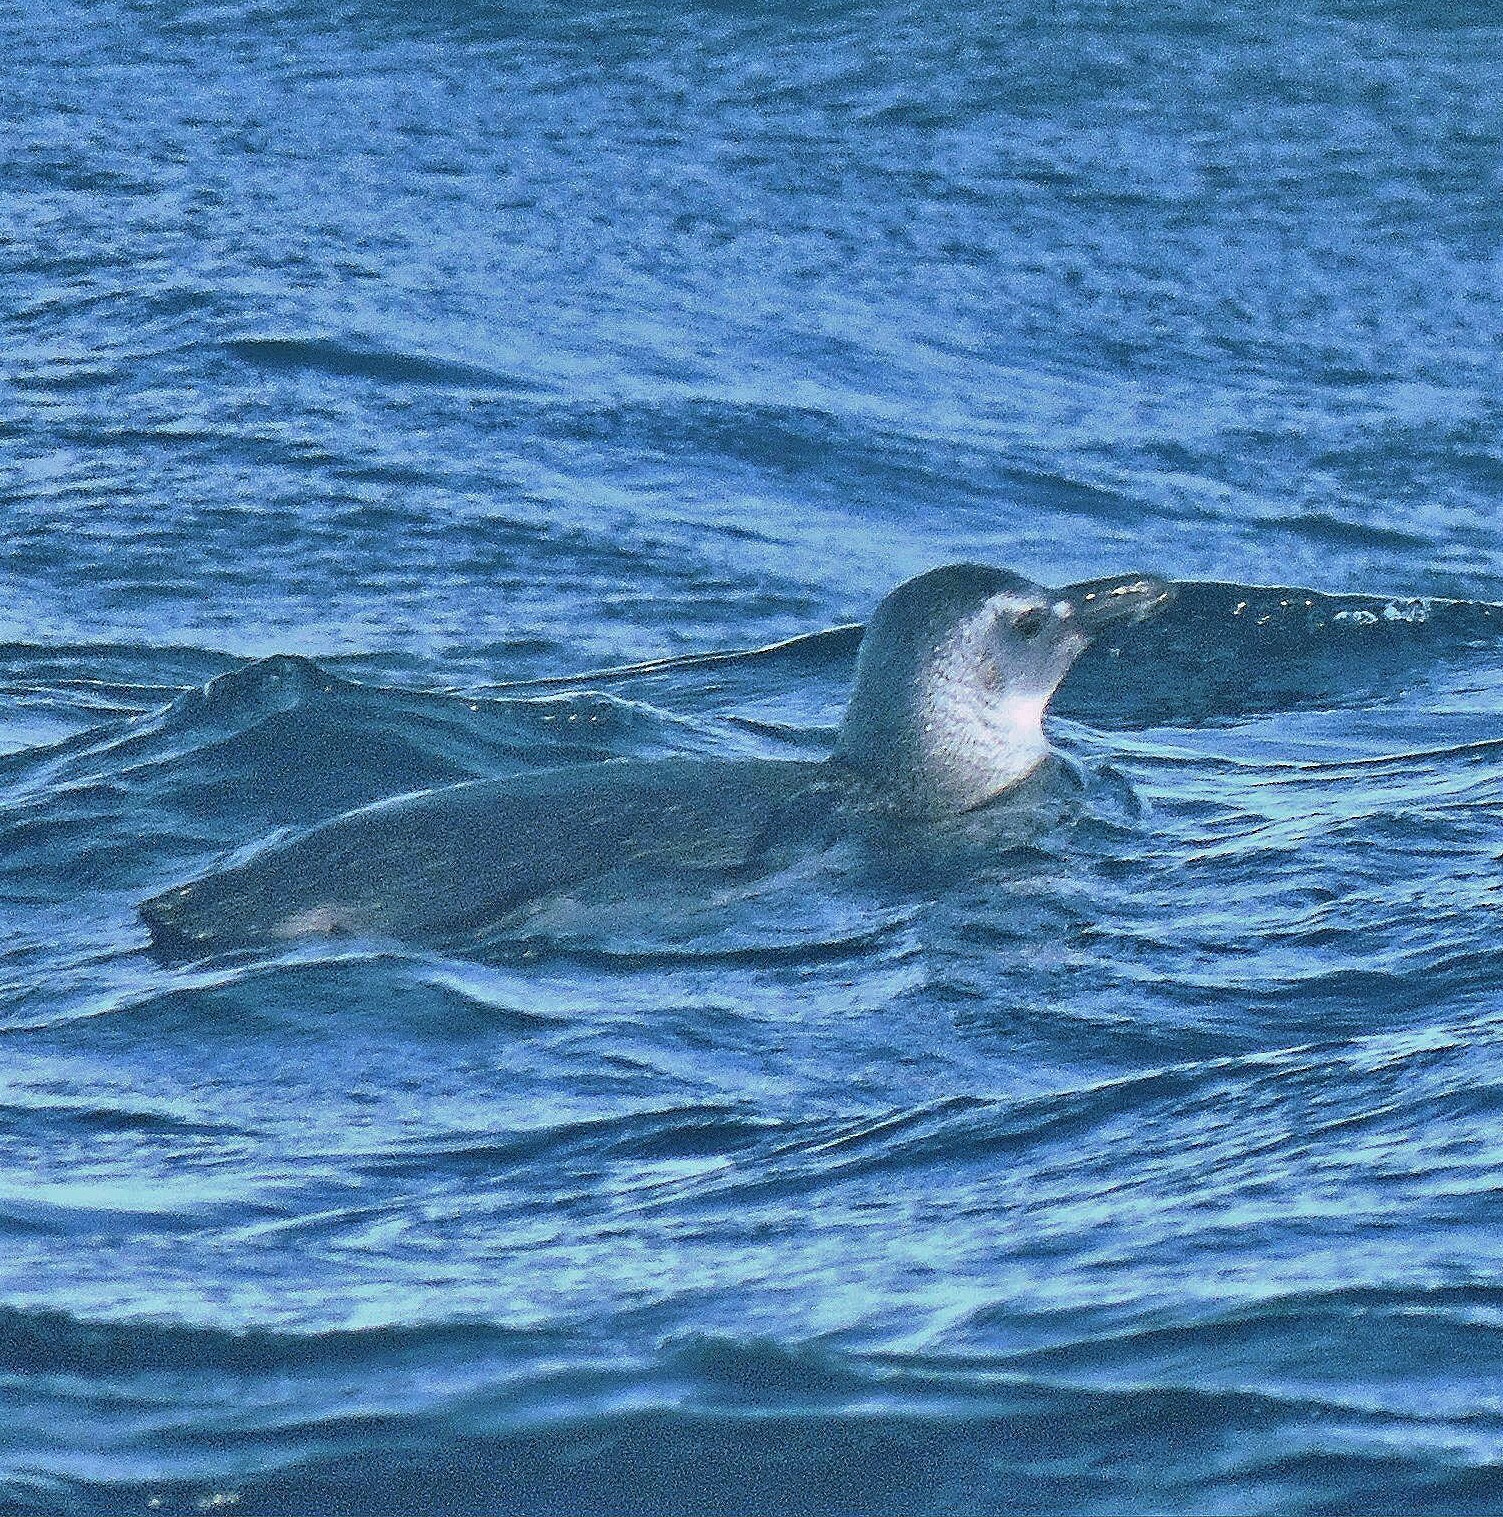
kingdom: Animalia
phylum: Chordata
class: Aves
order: Sphenisciformes
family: Spheniscidae
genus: Spheniscus
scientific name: Spheniscus magellanicus
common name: Magellanic penguin
